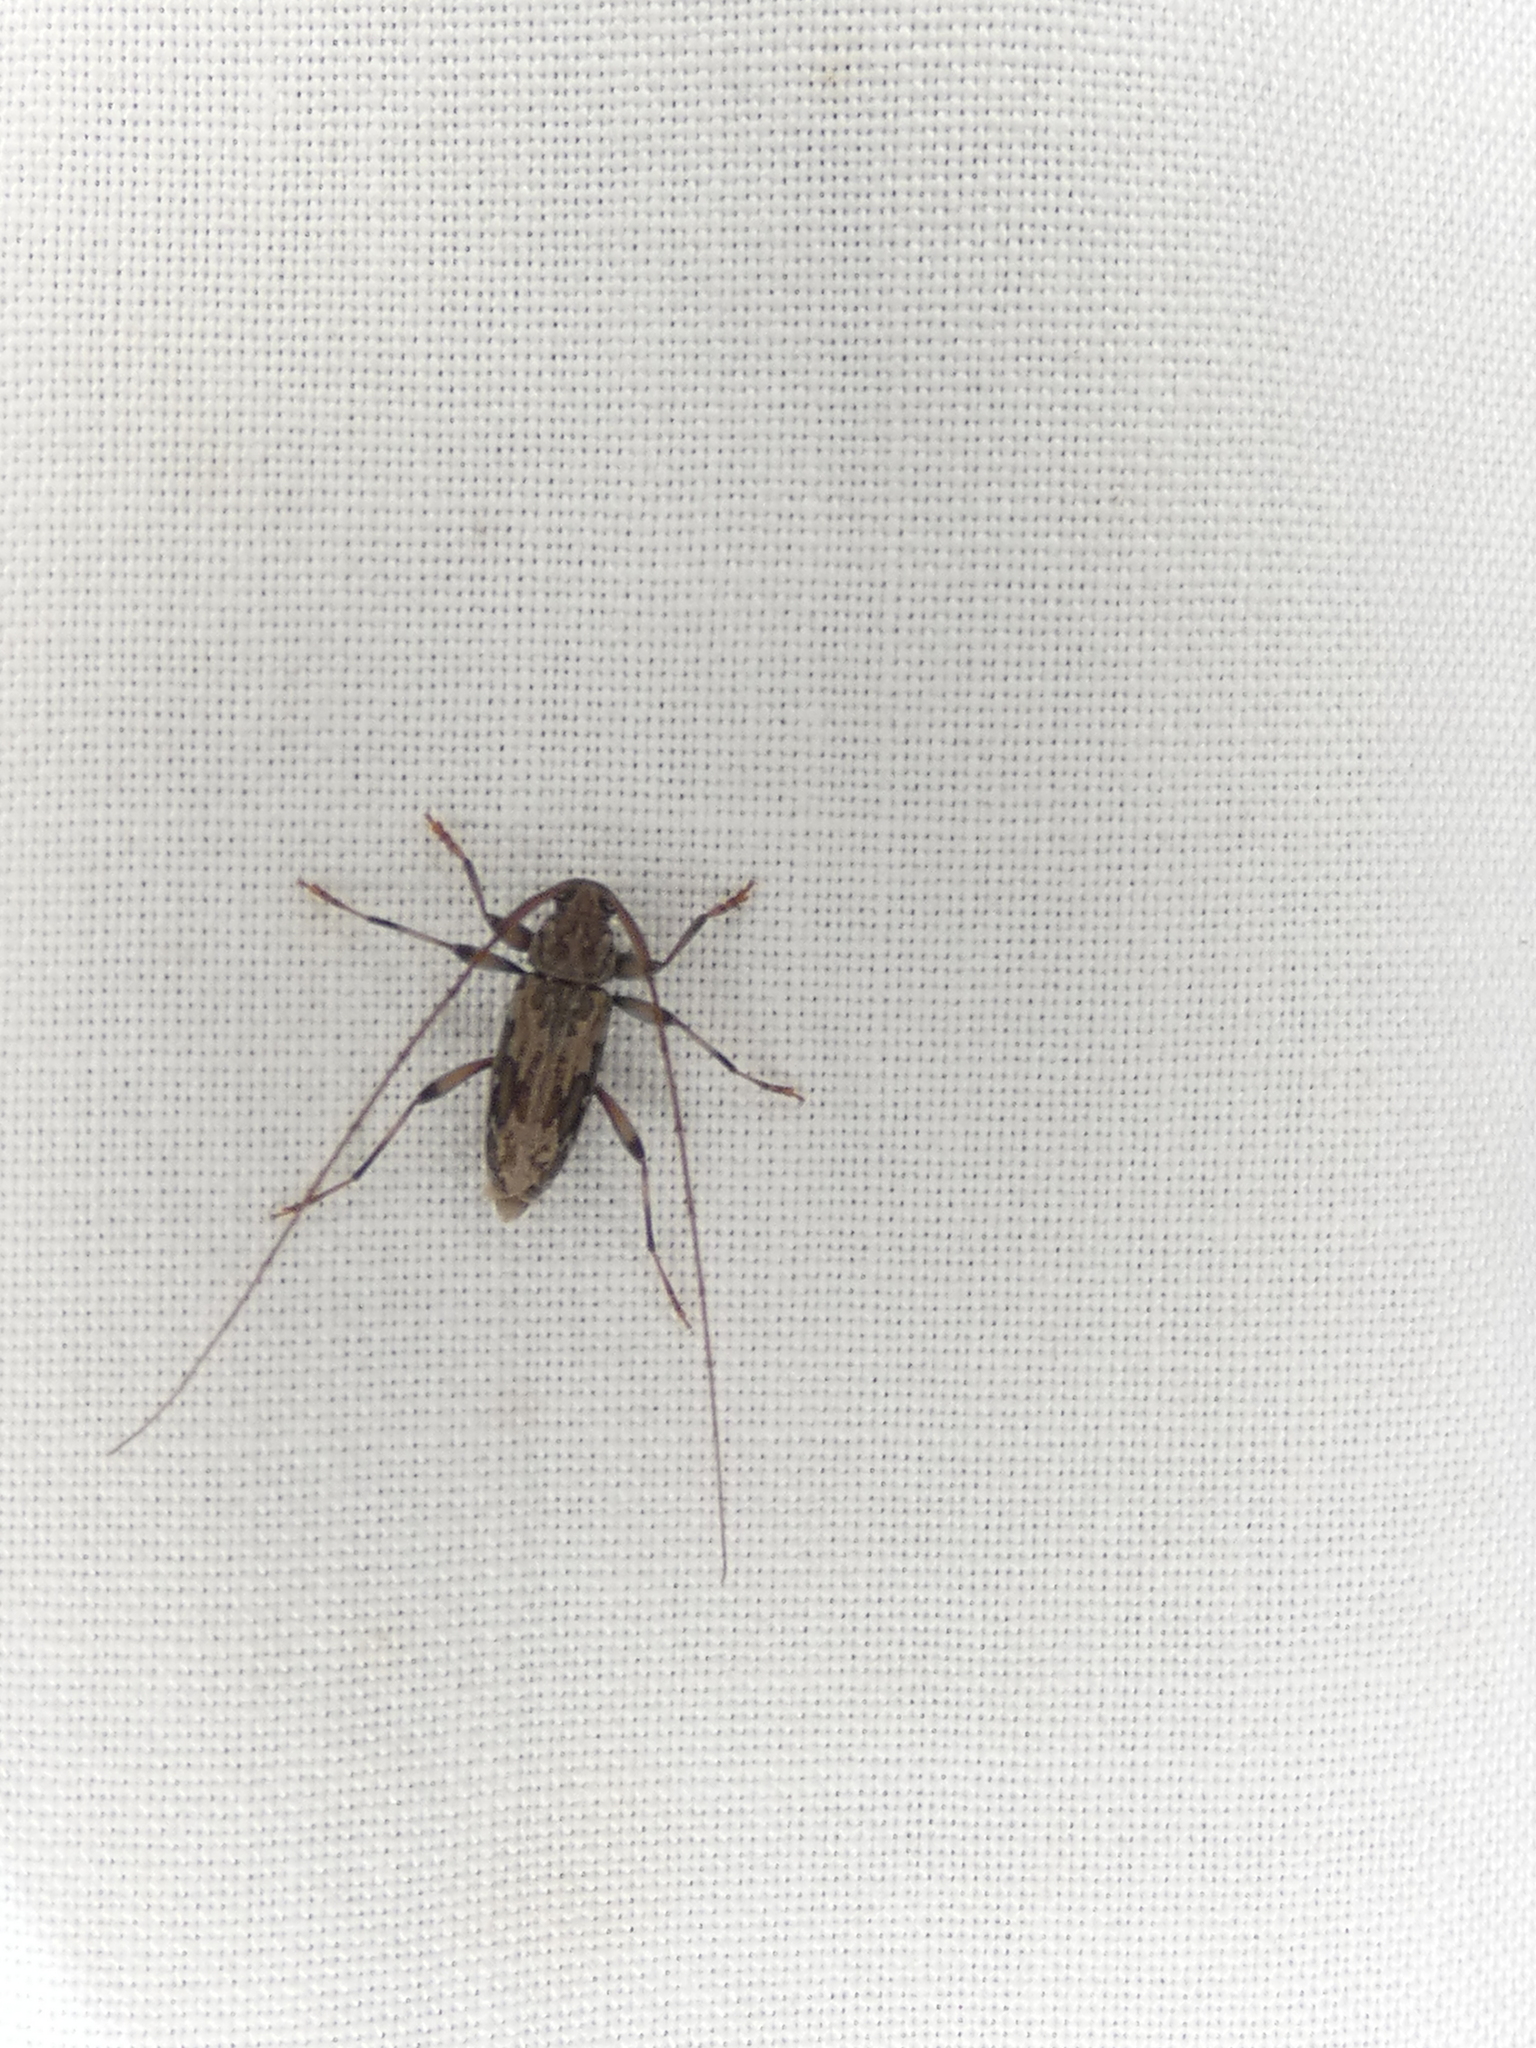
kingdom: Animalia
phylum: Arthropoda
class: Insecta
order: Coleoptera
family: Cerambycidae
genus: Lepturges
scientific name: Lepturges confluens
